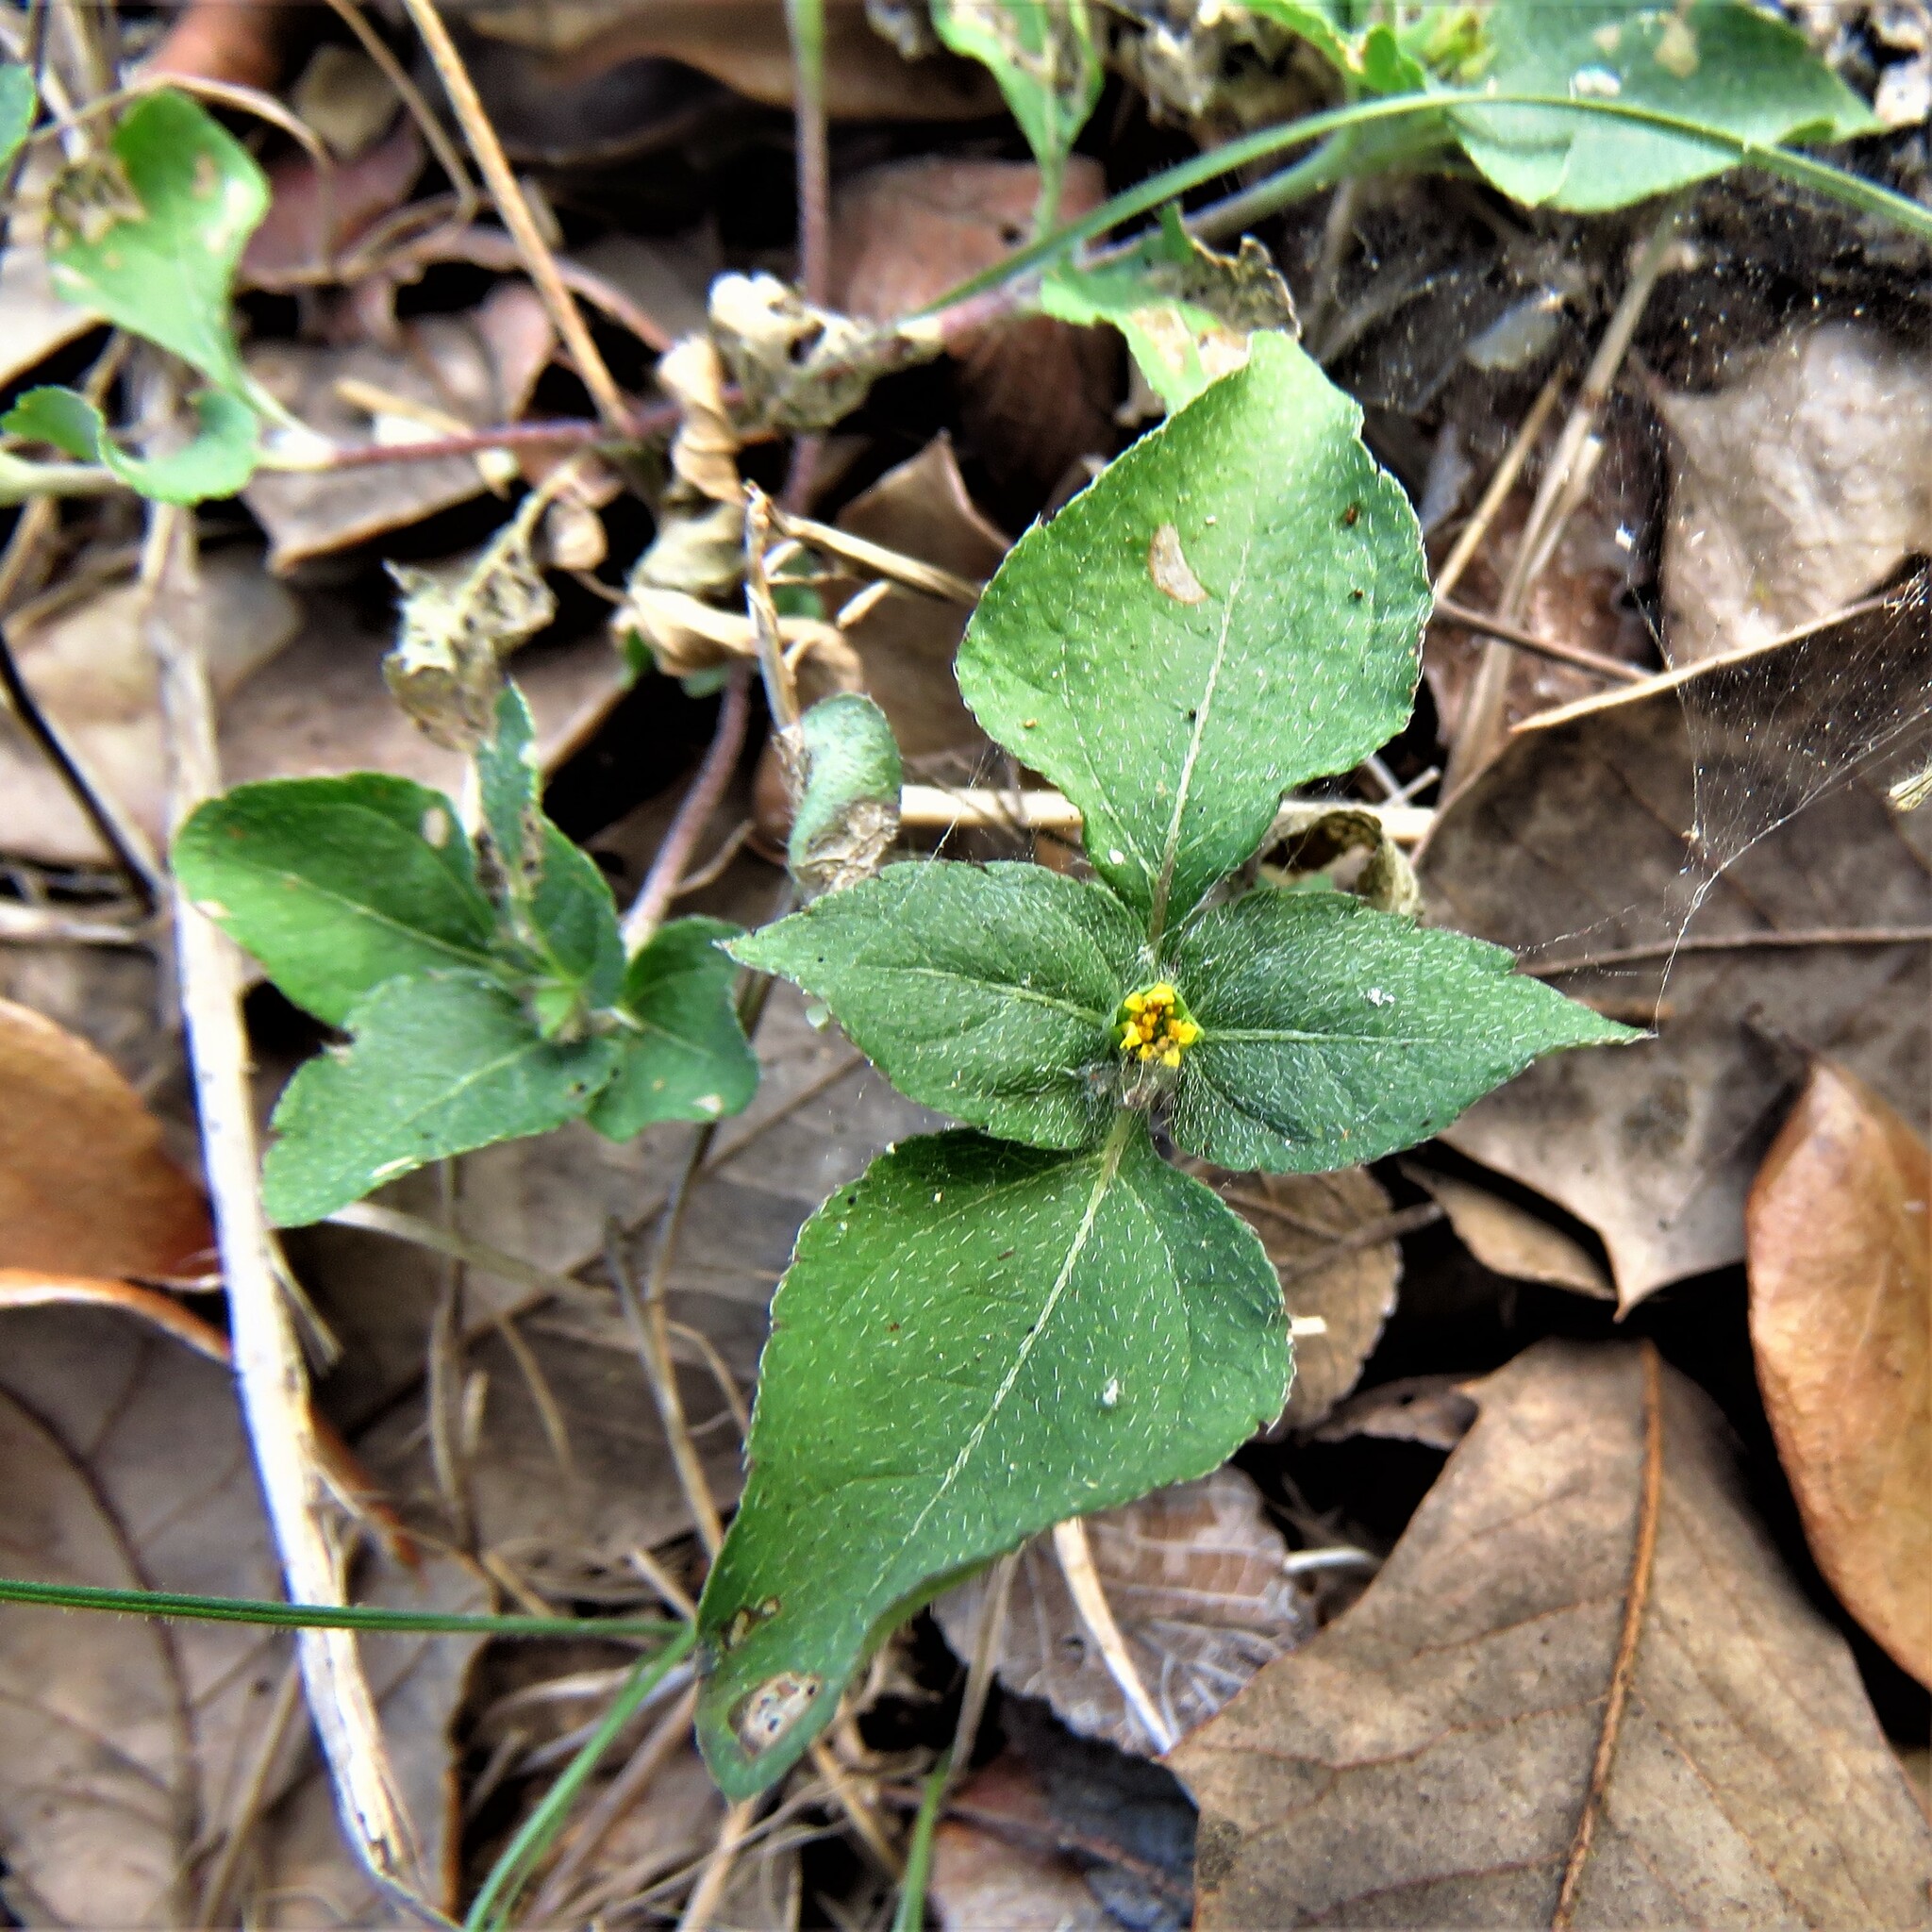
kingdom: Plantae
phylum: Tracheophyta
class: Magnoliopsida
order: Asterales
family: Asteraceae
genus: Calyptocarpus
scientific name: Calyptocarpus vialis
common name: Straggler daisy
